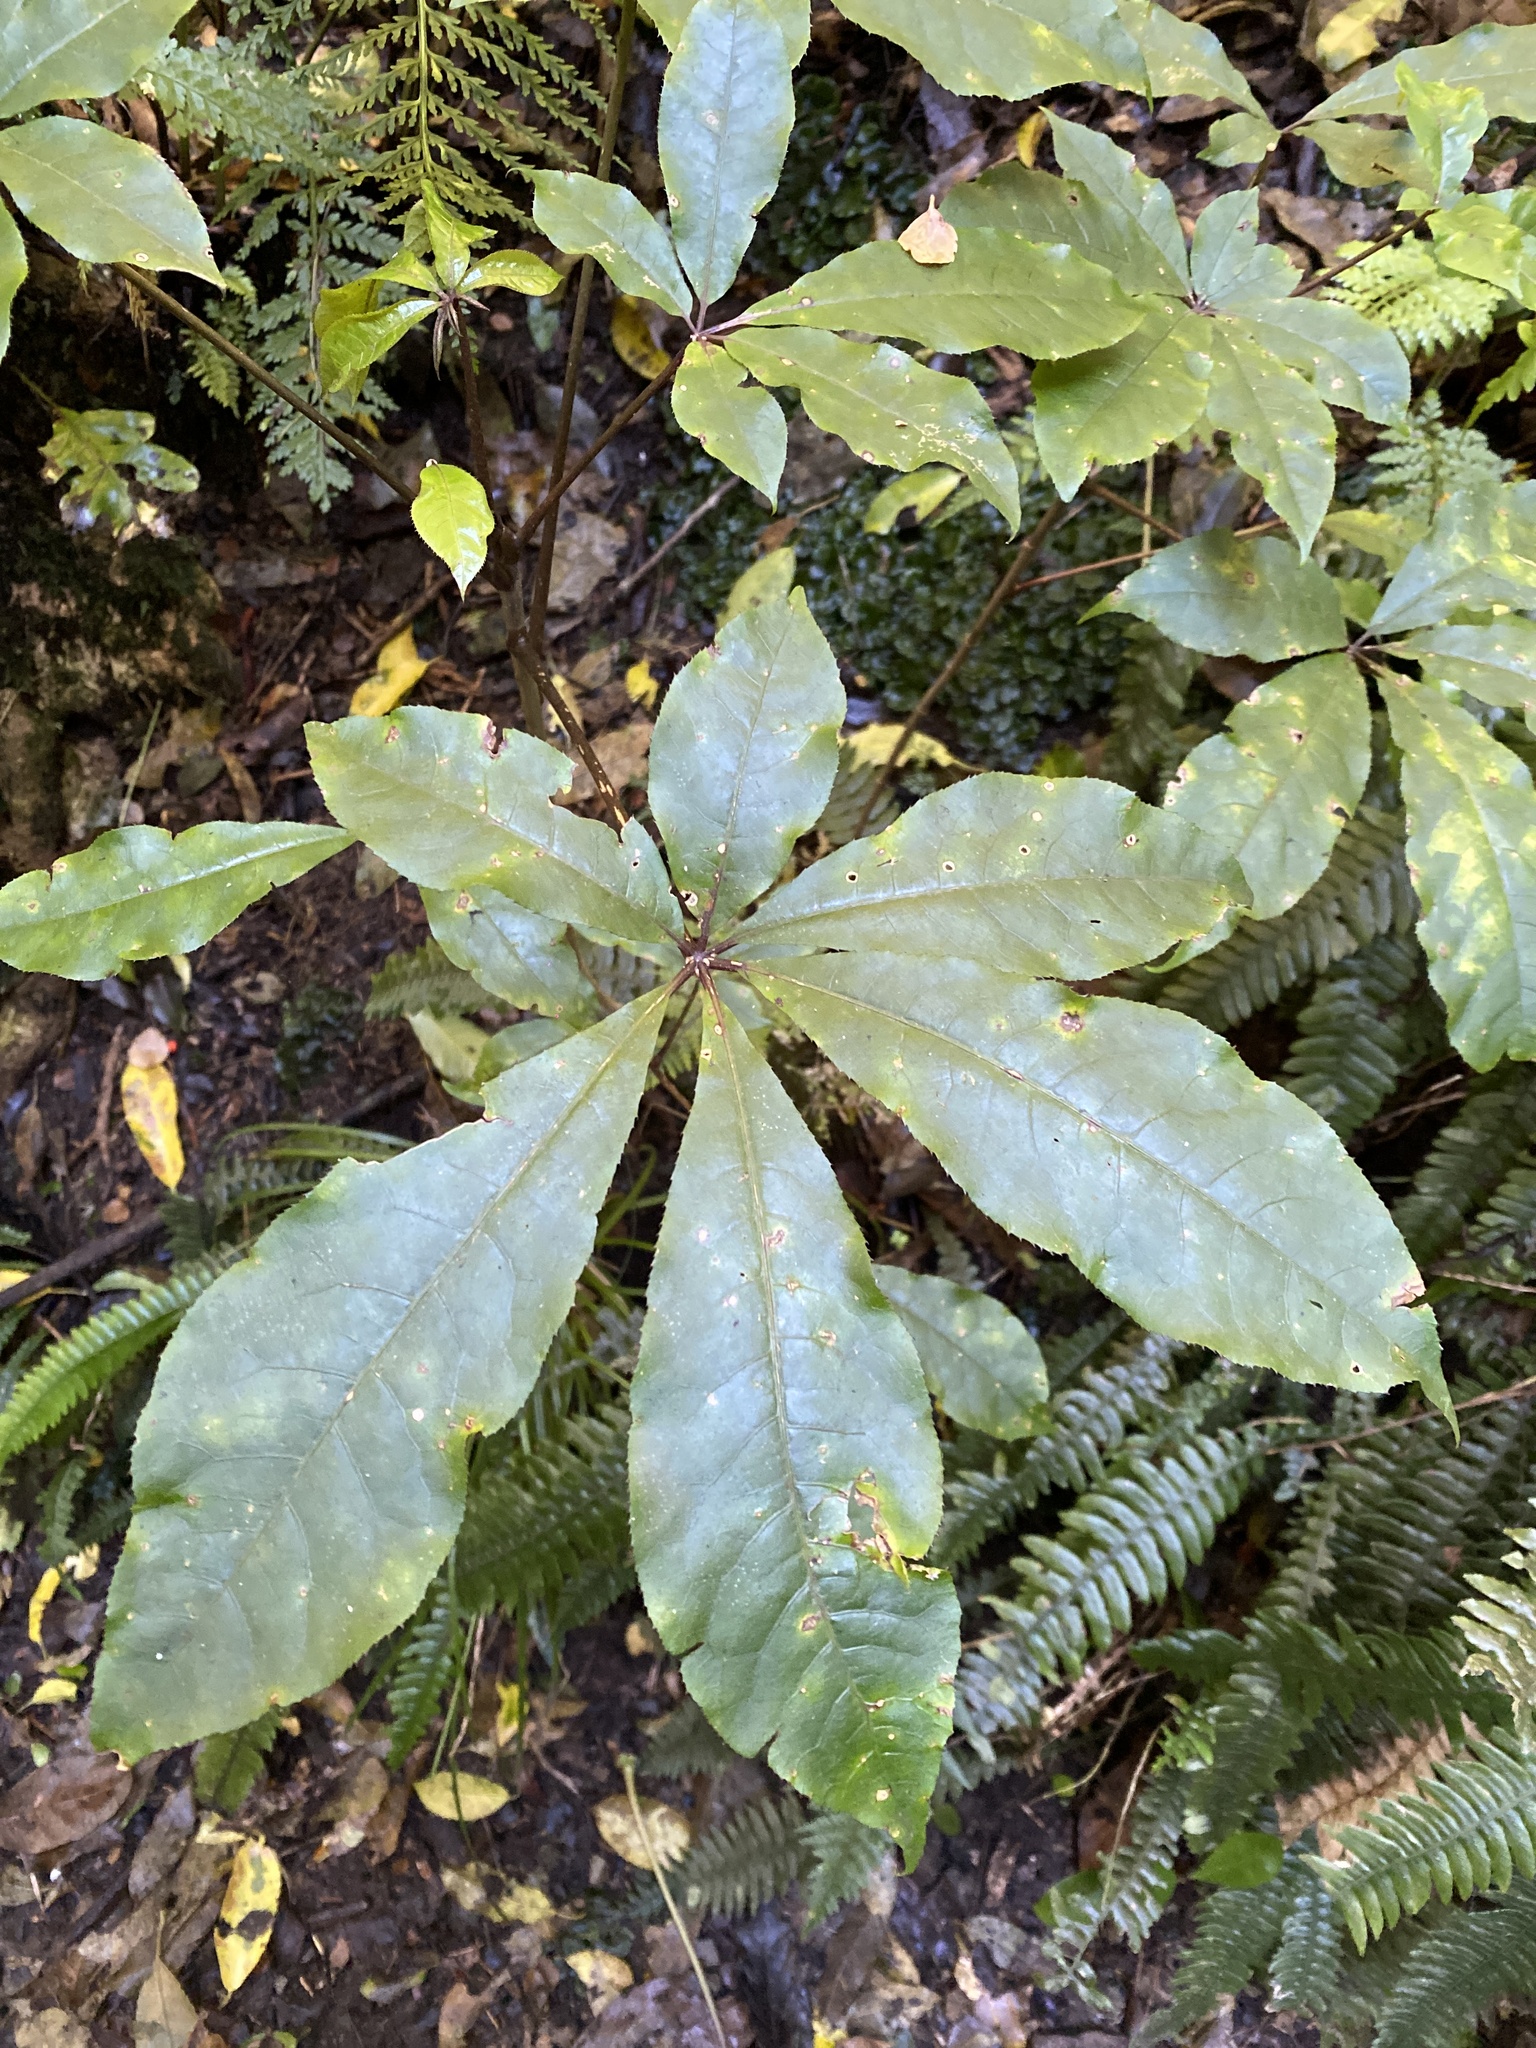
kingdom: Plantae
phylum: Tracheophyta
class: Magnoliopsida
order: Apiales
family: Araliaceae
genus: Schefflera
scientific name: Schefflera digitata
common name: Pate
